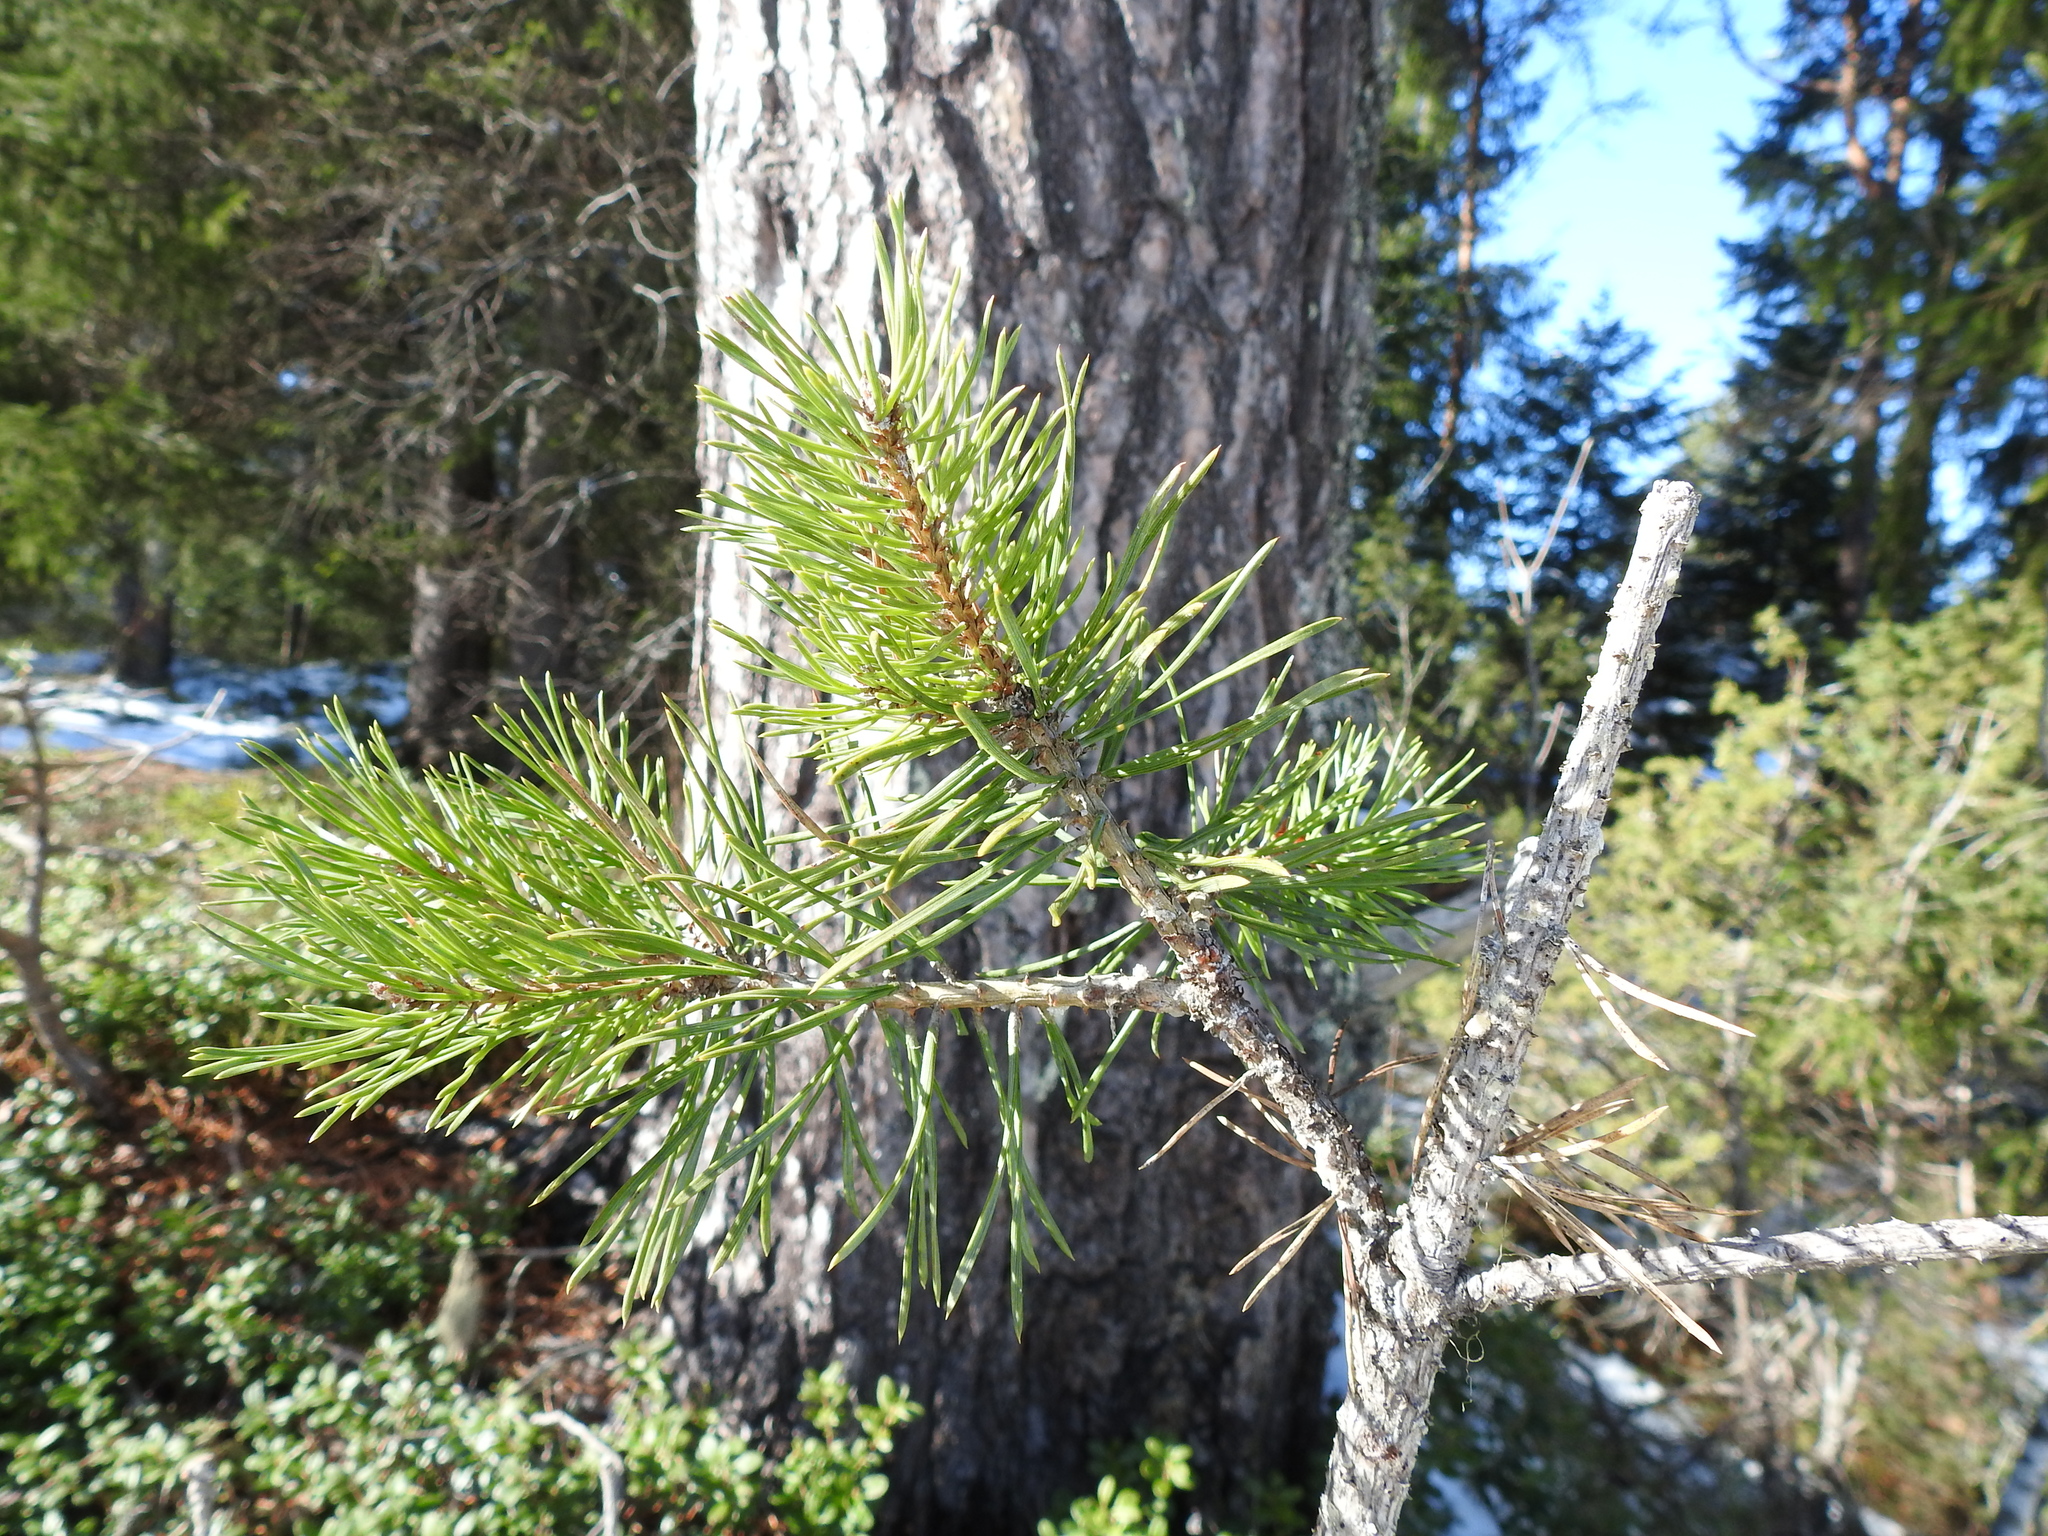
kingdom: Plantae
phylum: Tracheophyta
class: Pinopsida
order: Pinales
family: Pinaceae
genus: Pinus
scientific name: Pinus sylvestris
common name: Scots pine
